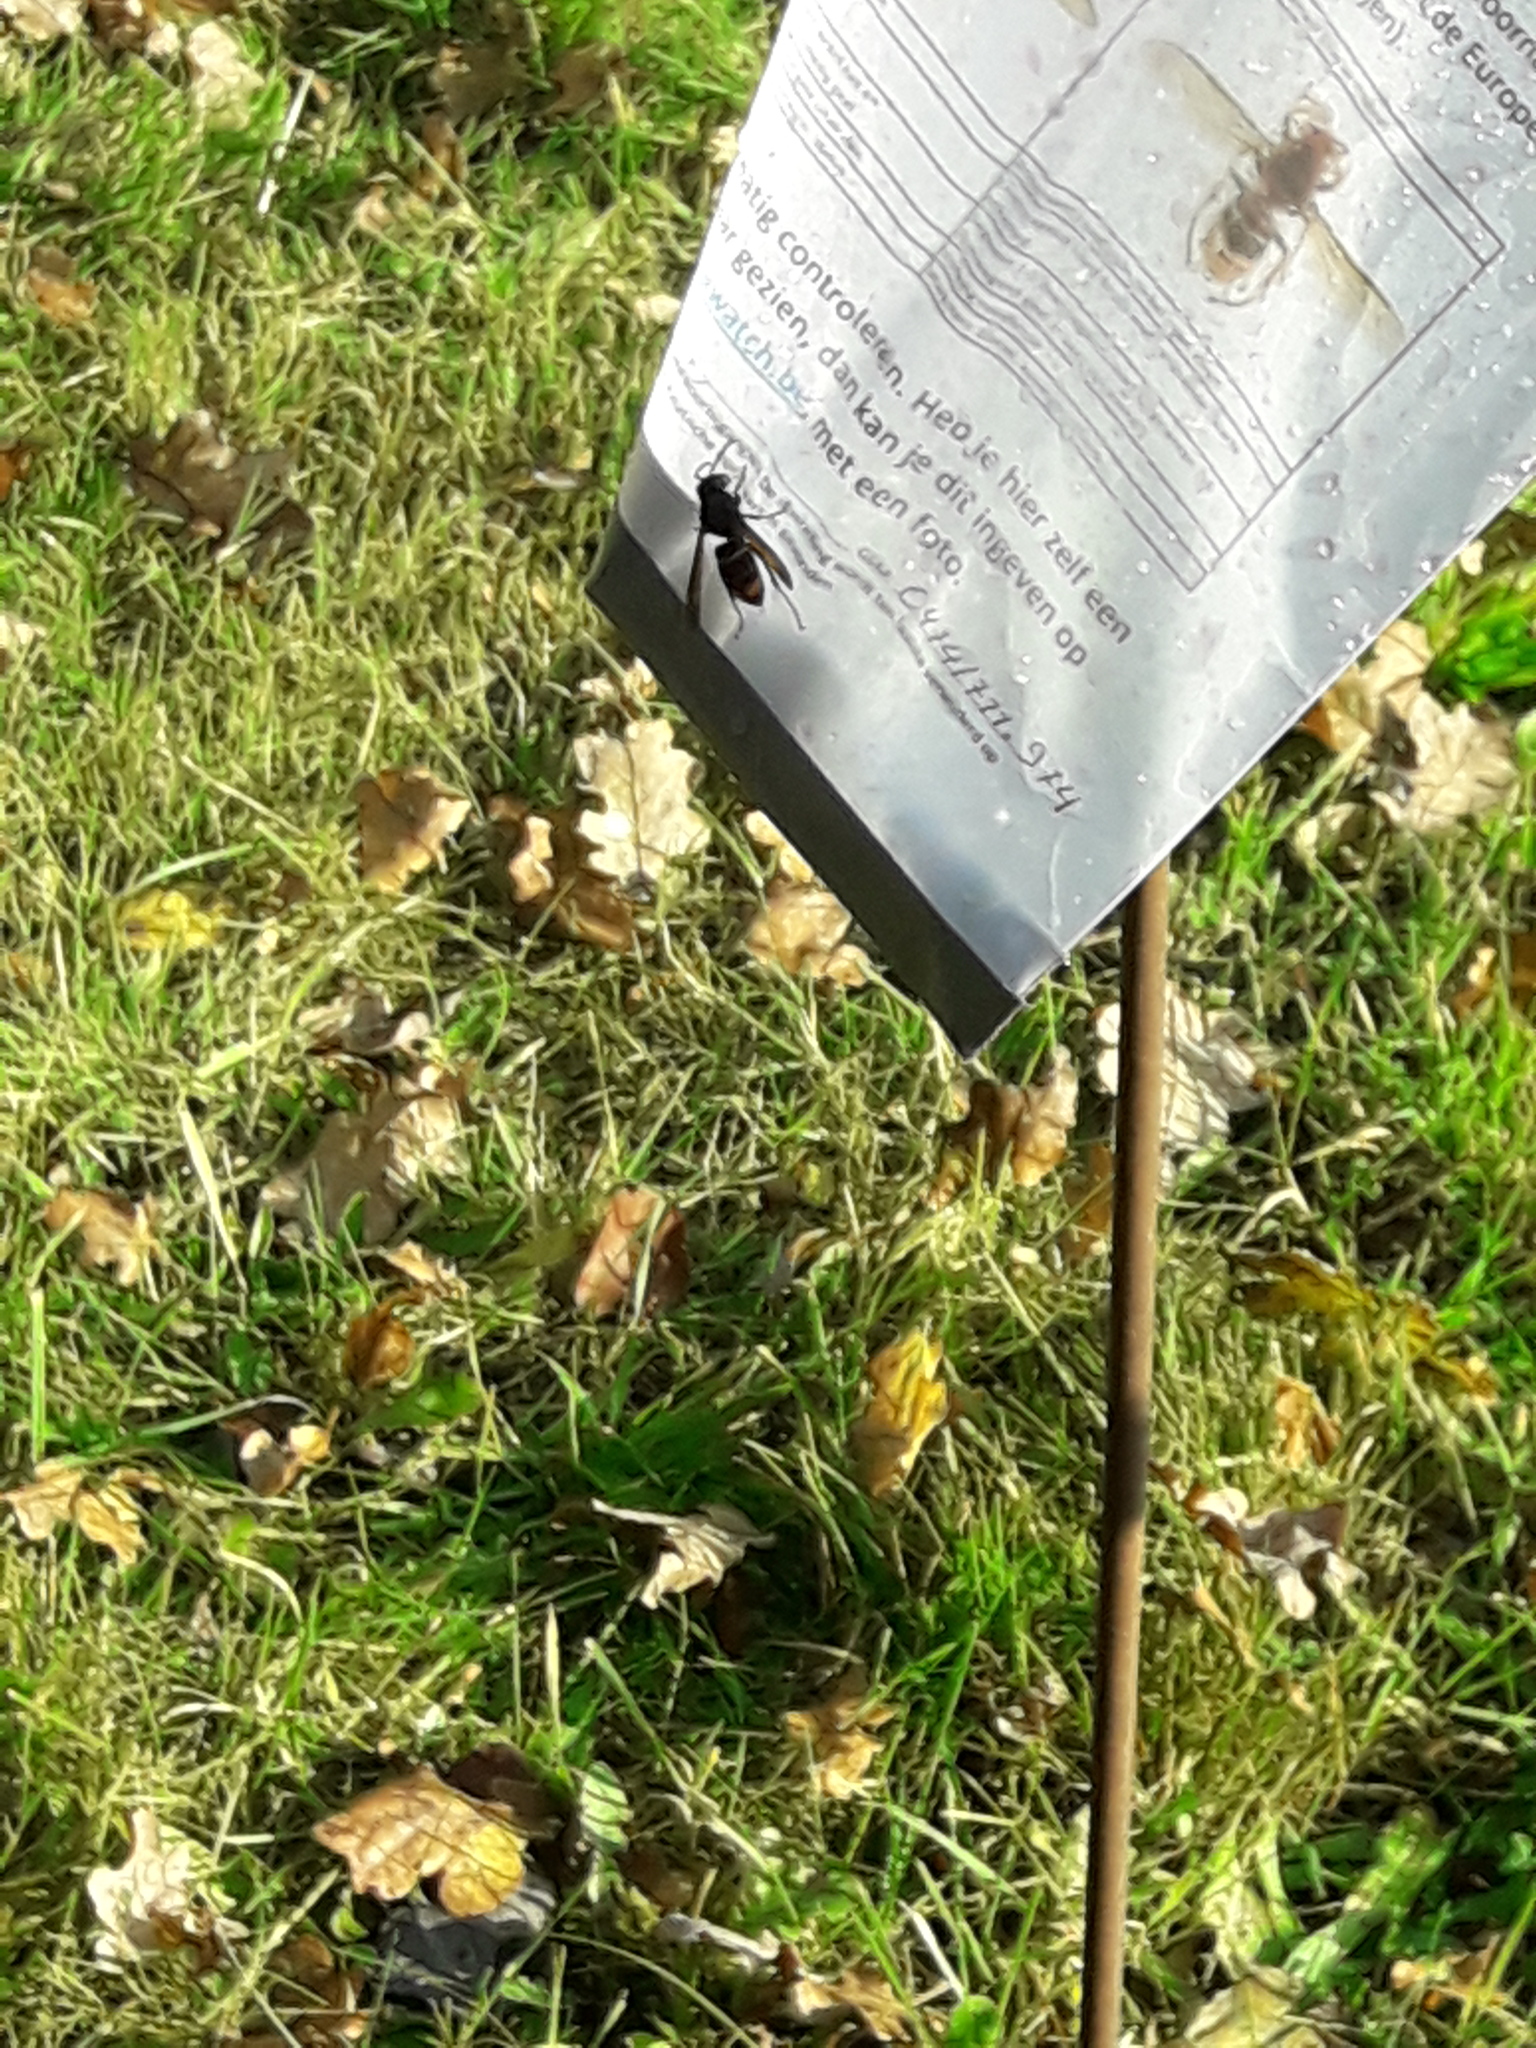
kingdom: Animalia
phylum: Arthropoda
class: Insecta
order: Hymenoptera
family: Vespidae
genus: Vespa
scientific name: Vespa velutina
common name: Asian hornet
